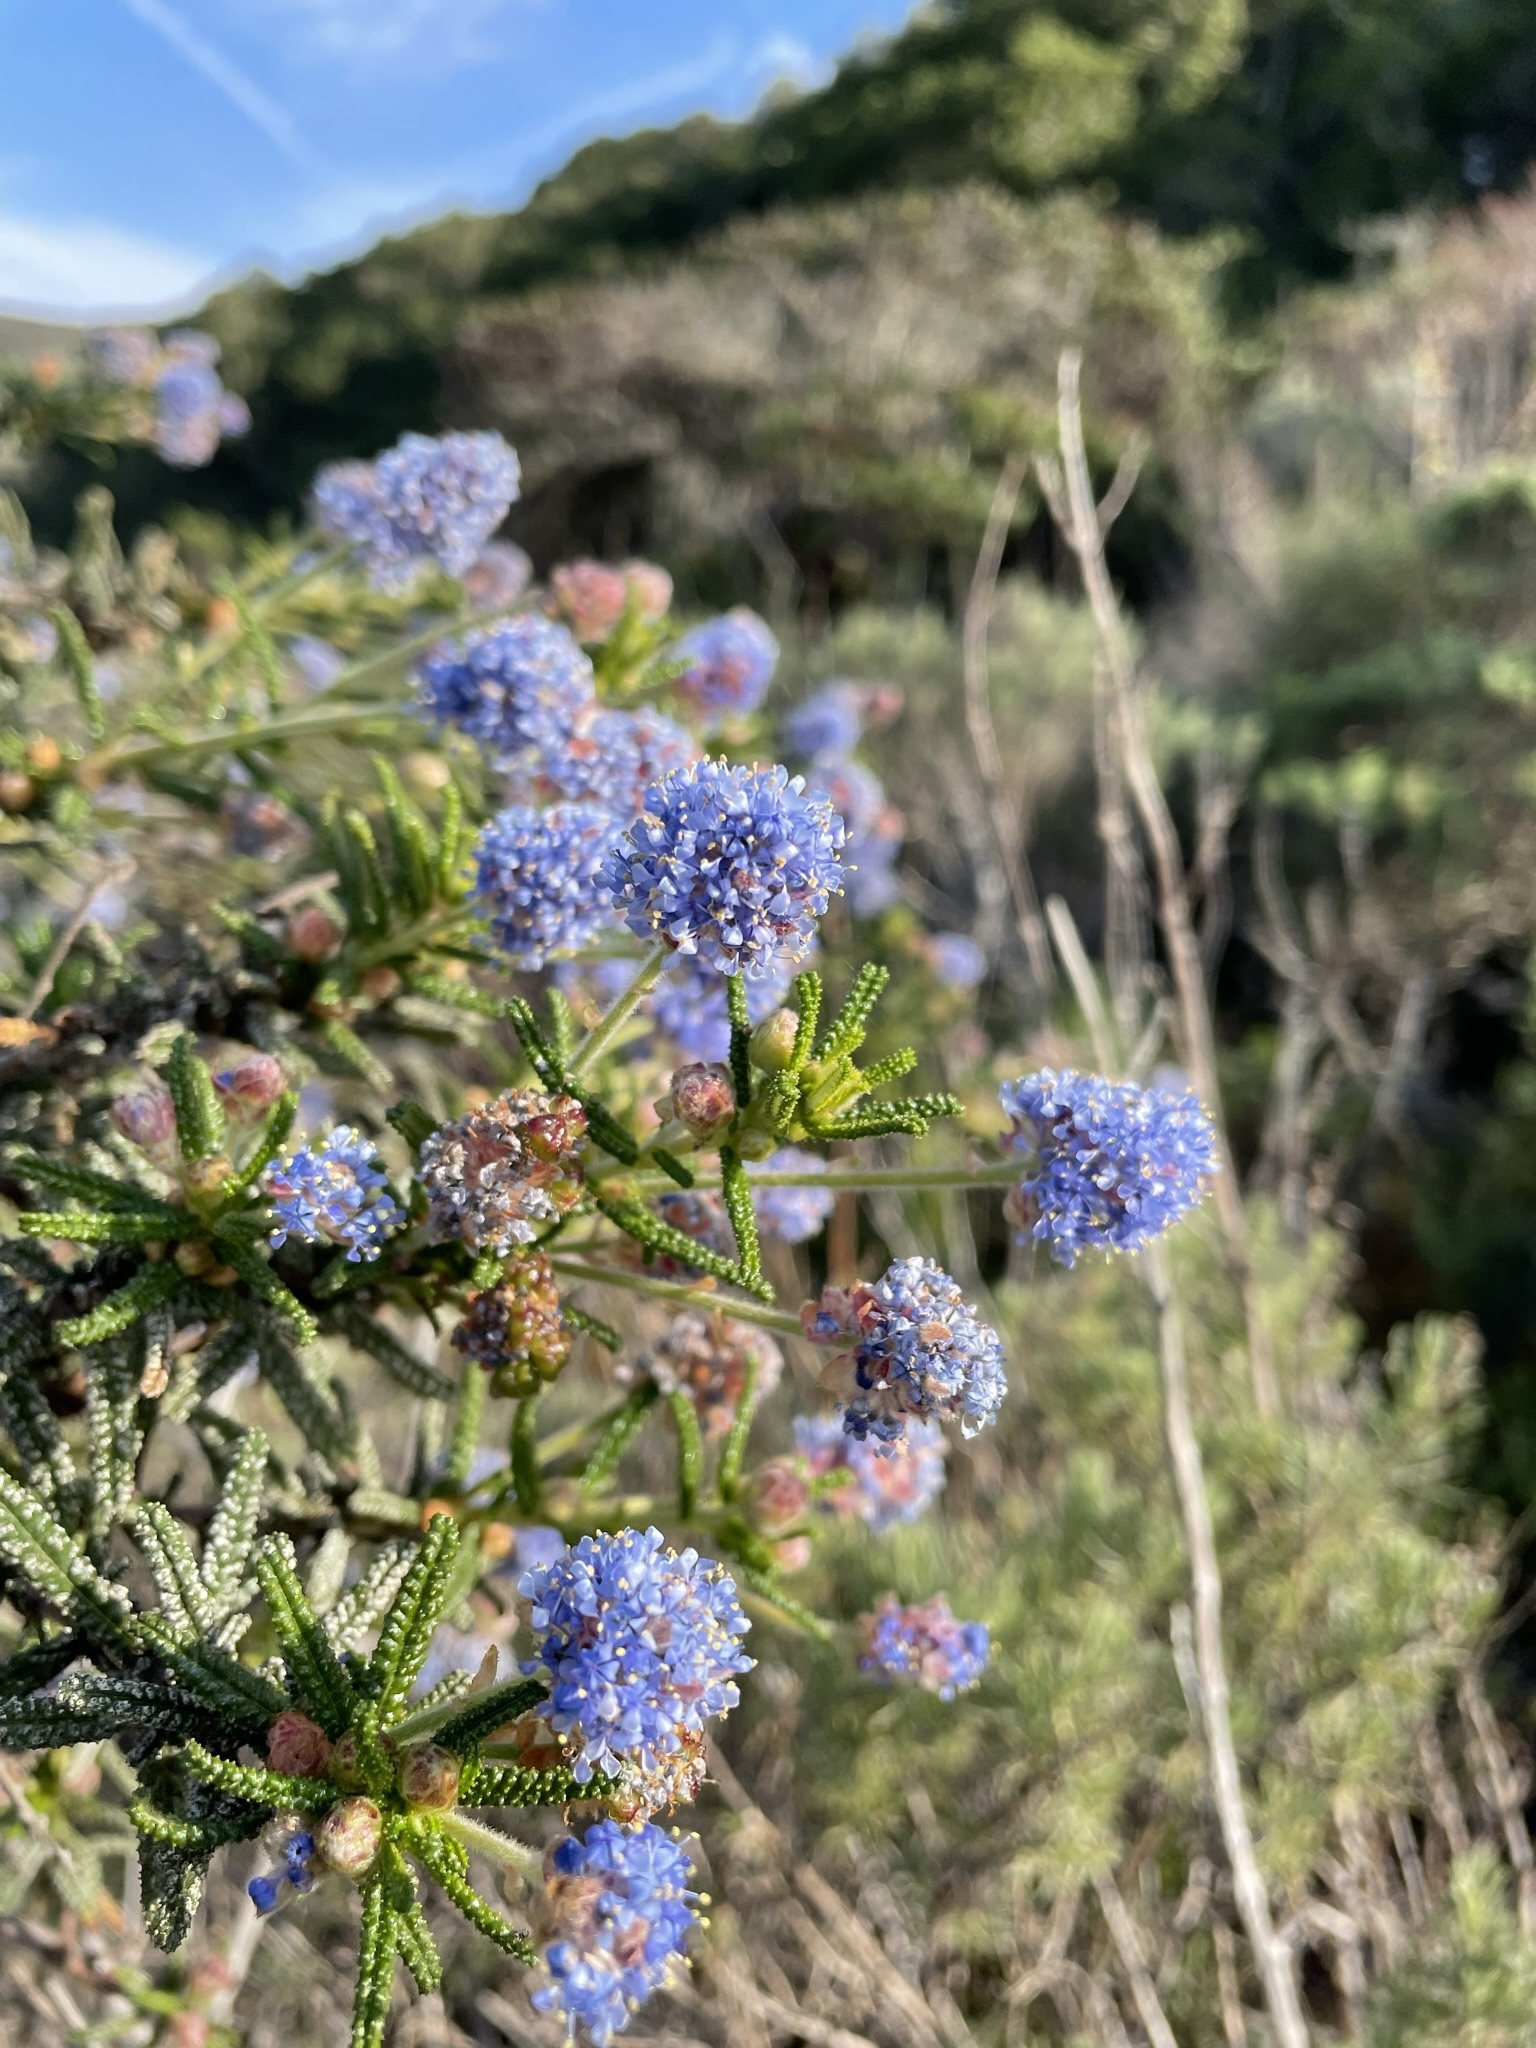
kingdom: Plantae
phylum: Tracheophyta
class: Magnoliopsida
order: Rosales
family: Rhamnaceae
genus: Ceanothus
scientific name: Ceanothus papillosus
